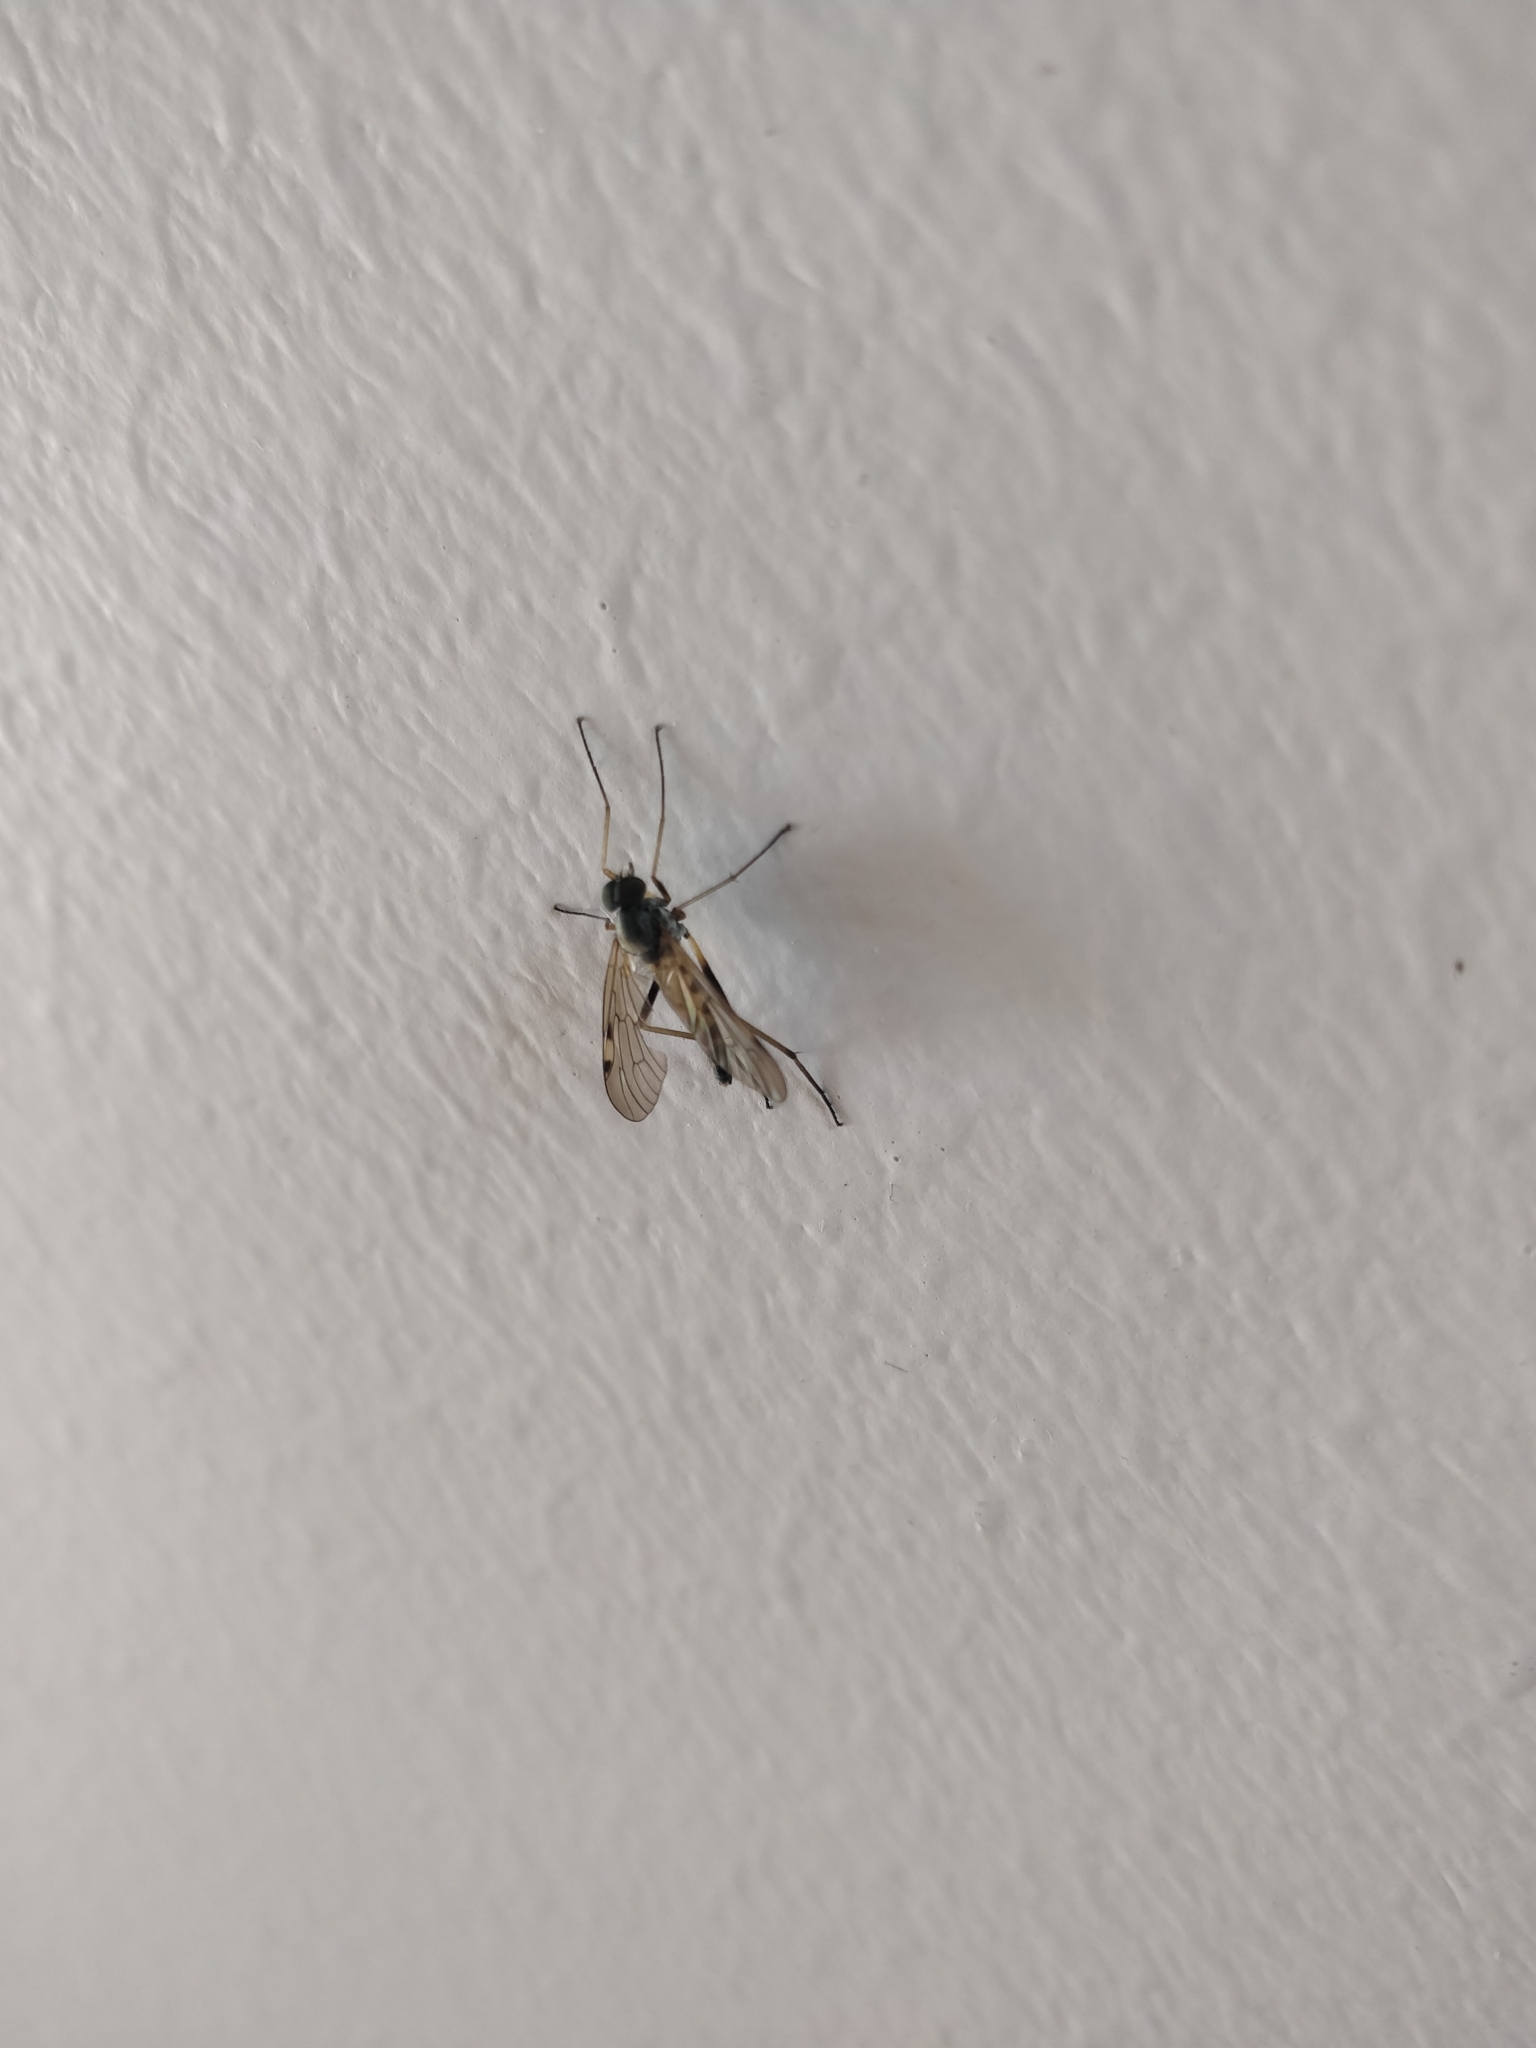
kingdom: Animalia
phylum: Arthropoda
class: Insecta
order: Diptera
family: Rhagionidae
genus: Rhagio
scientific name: Rhagio maculatus
